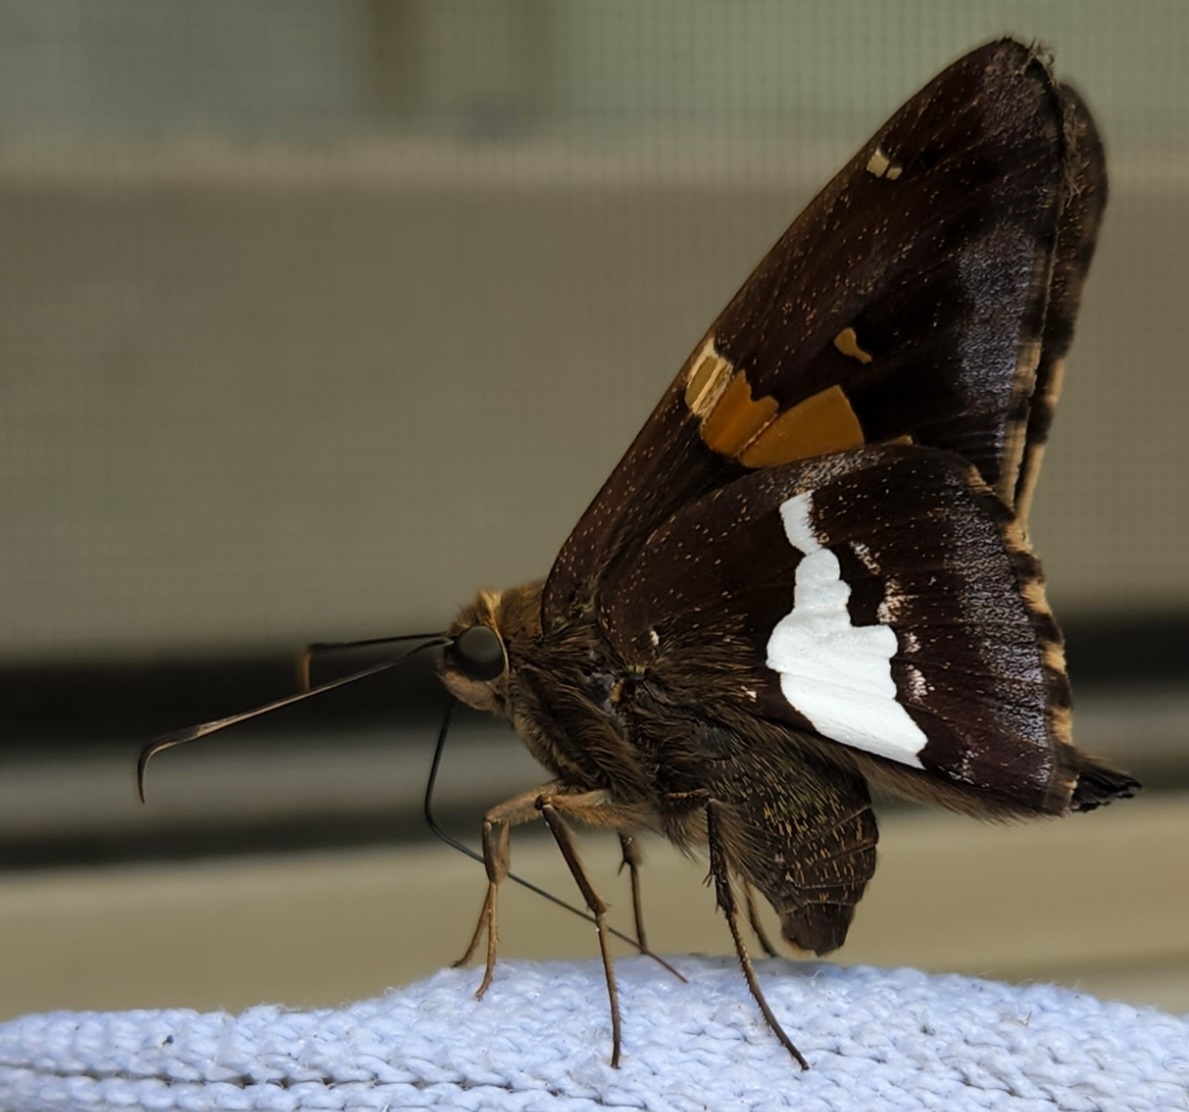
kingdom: Animalia
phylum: Arthropoda
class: Insecta
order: Lepidoptera
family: Hesperiidae
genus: Epargyreus
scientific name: Epargyreus clarus
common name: Silver-spotted skipper
